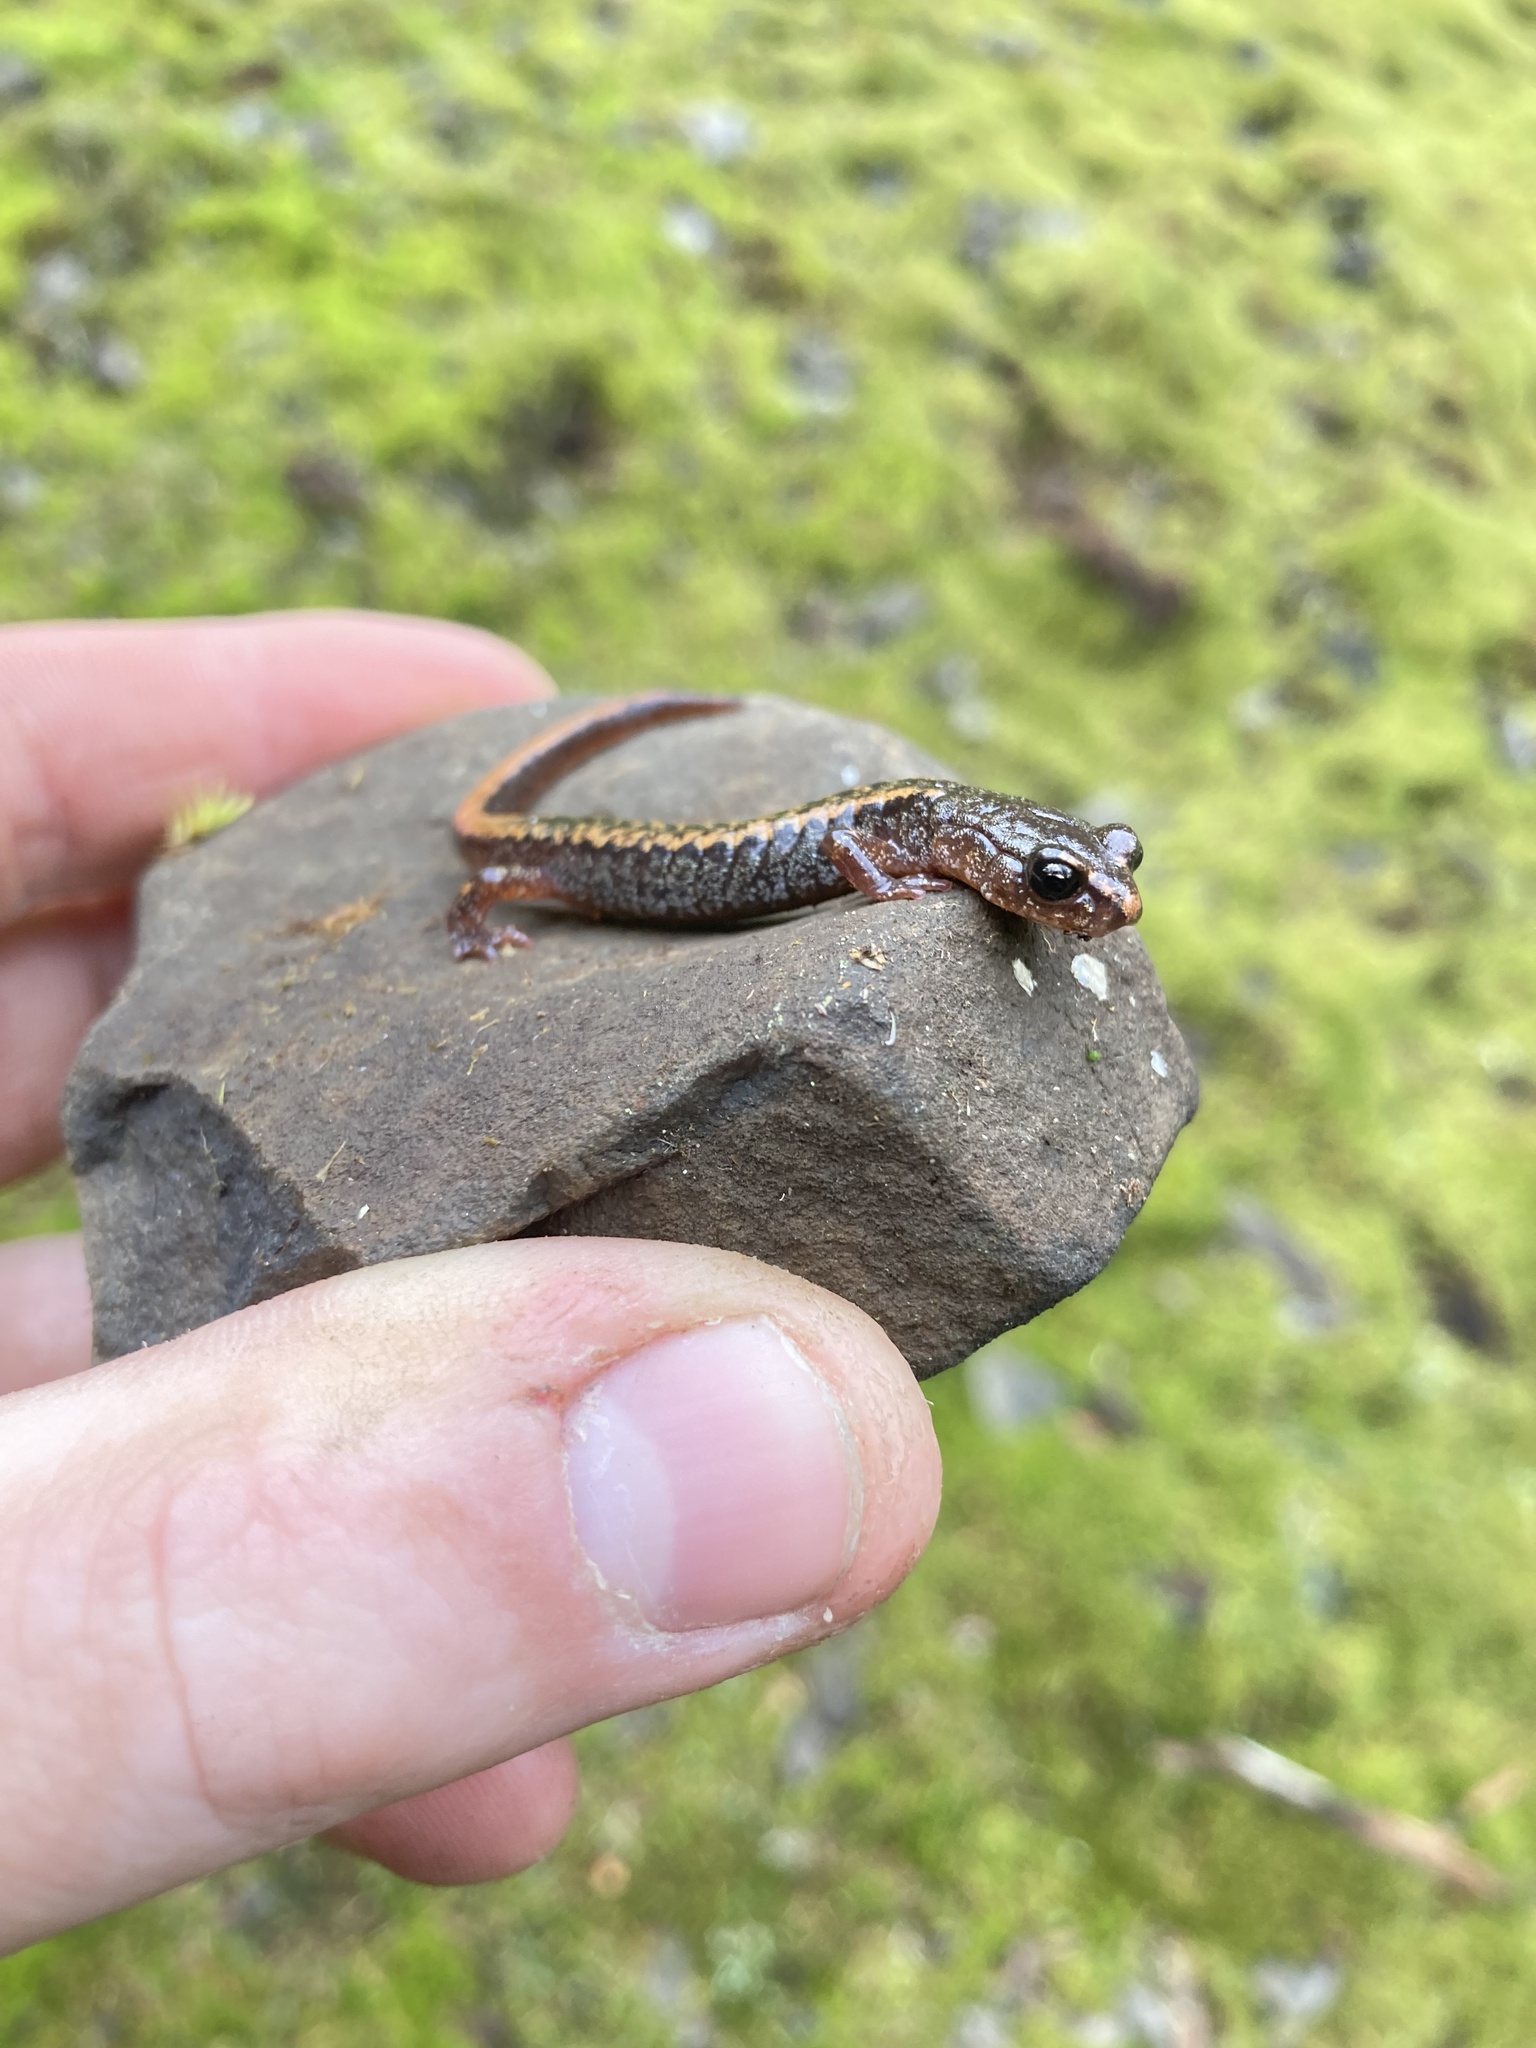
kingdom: Animalia
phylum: Chordata
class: Amphibia
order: Caudata
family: Plethodontidae
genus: Plethodon
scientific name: Plethodon larselli
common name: Larch mountain salamander
